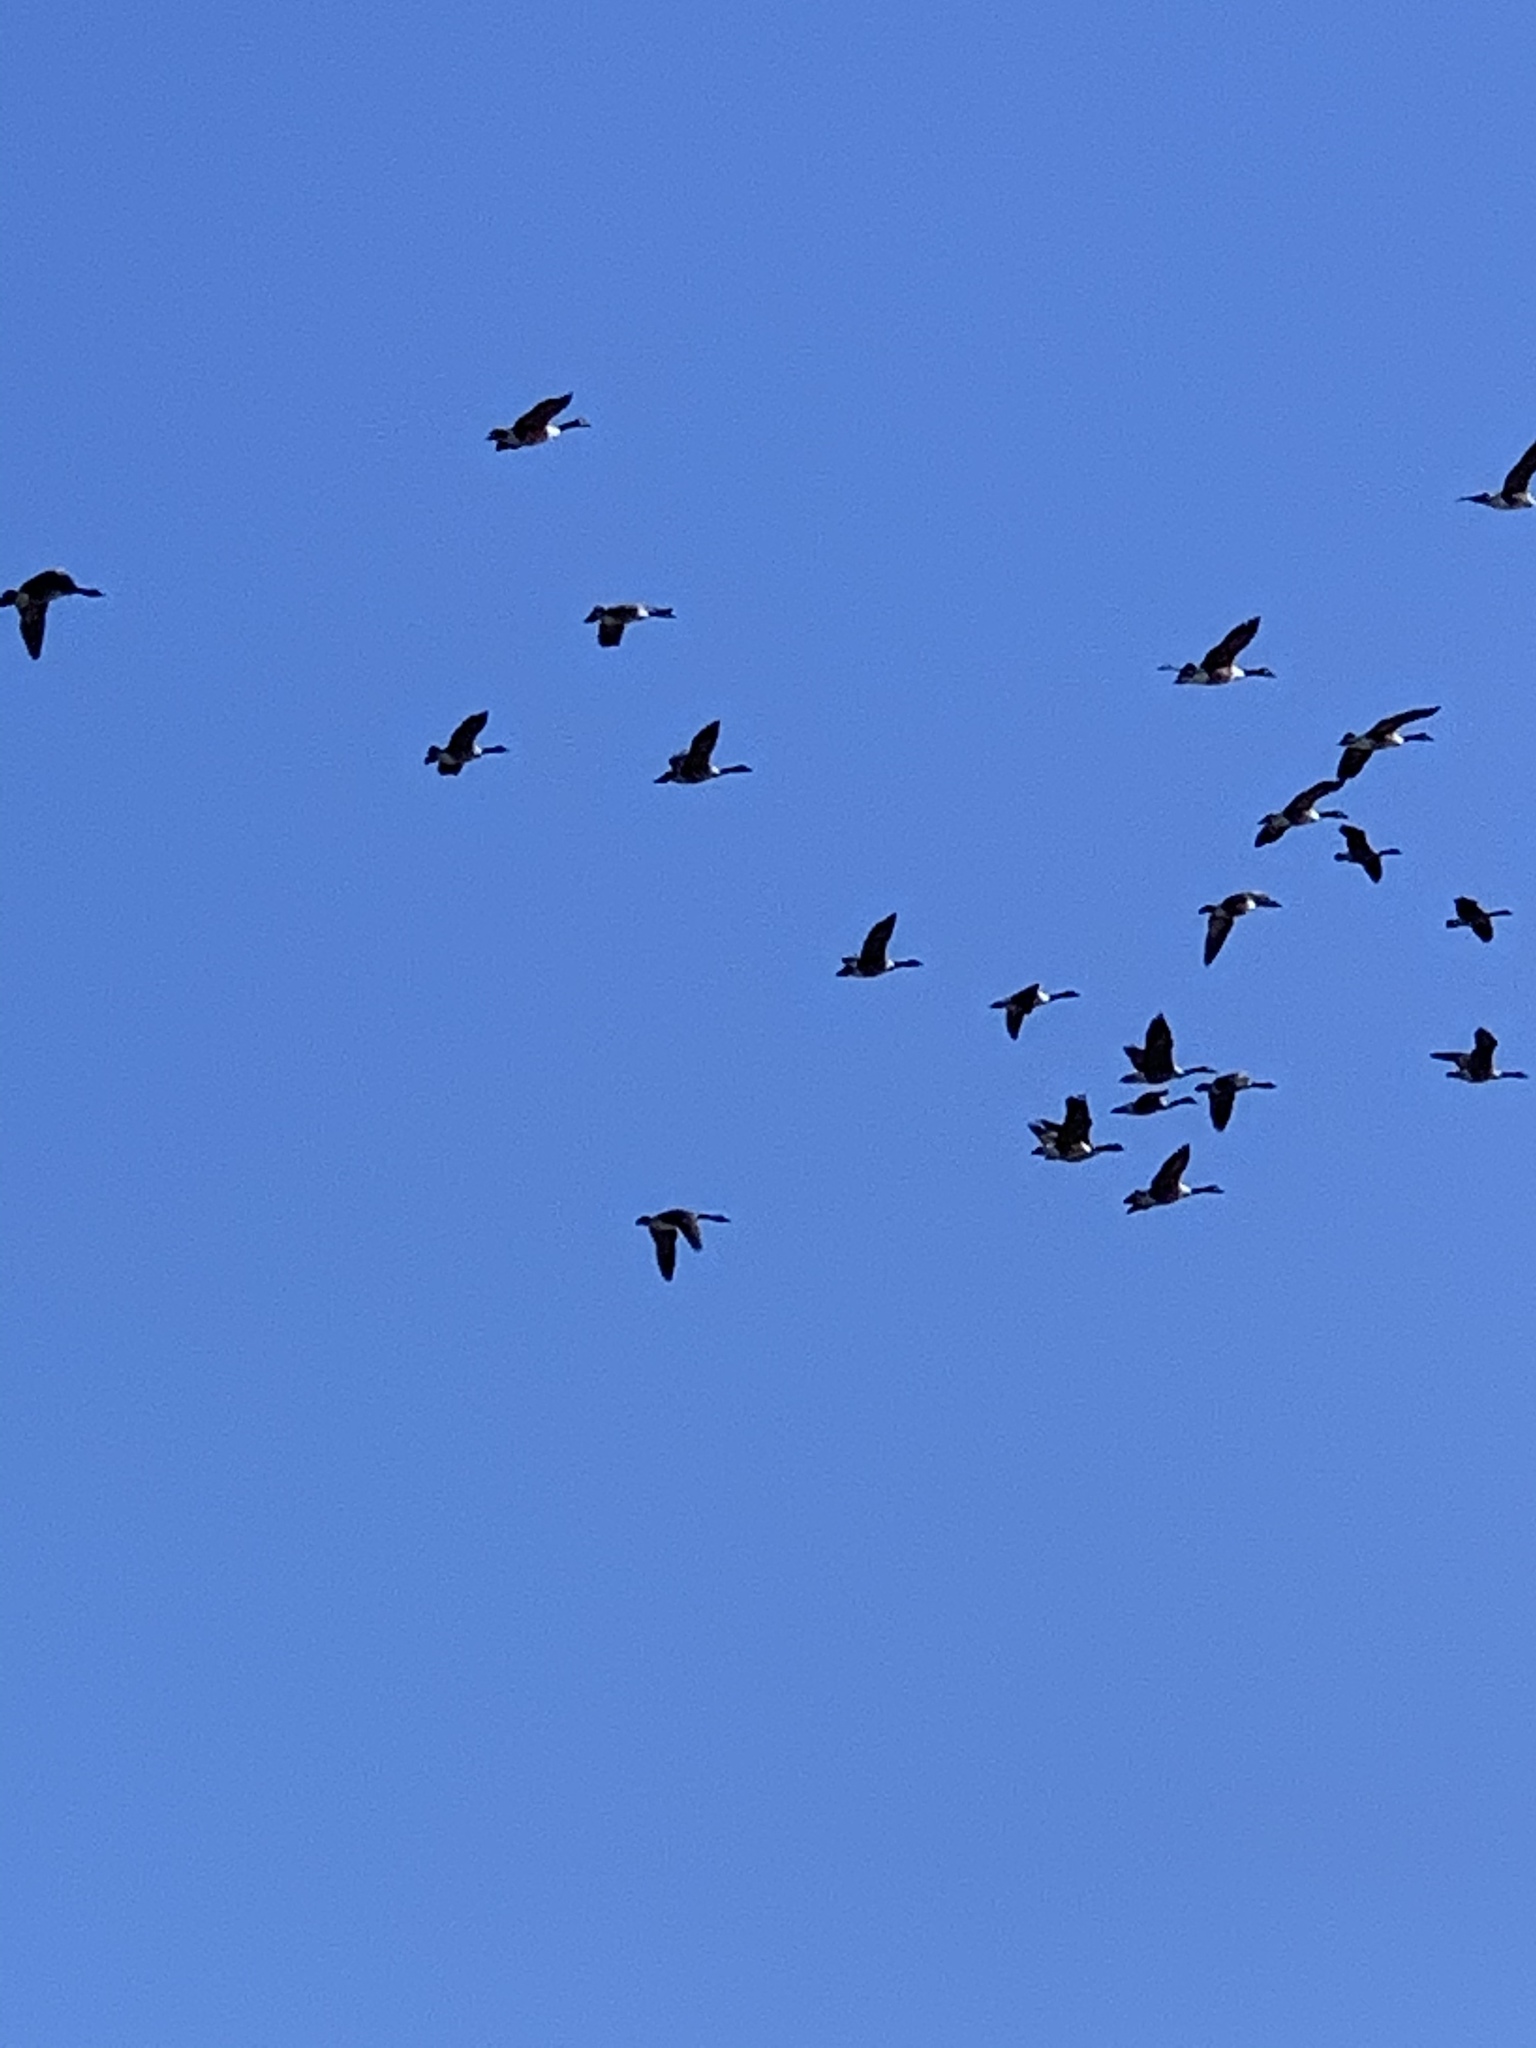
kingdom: Animalia
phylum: Chordata
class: Aves
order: Anseriformes
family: Anatidae
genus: Branta
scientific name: Branta canadensis
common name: Canada goose
